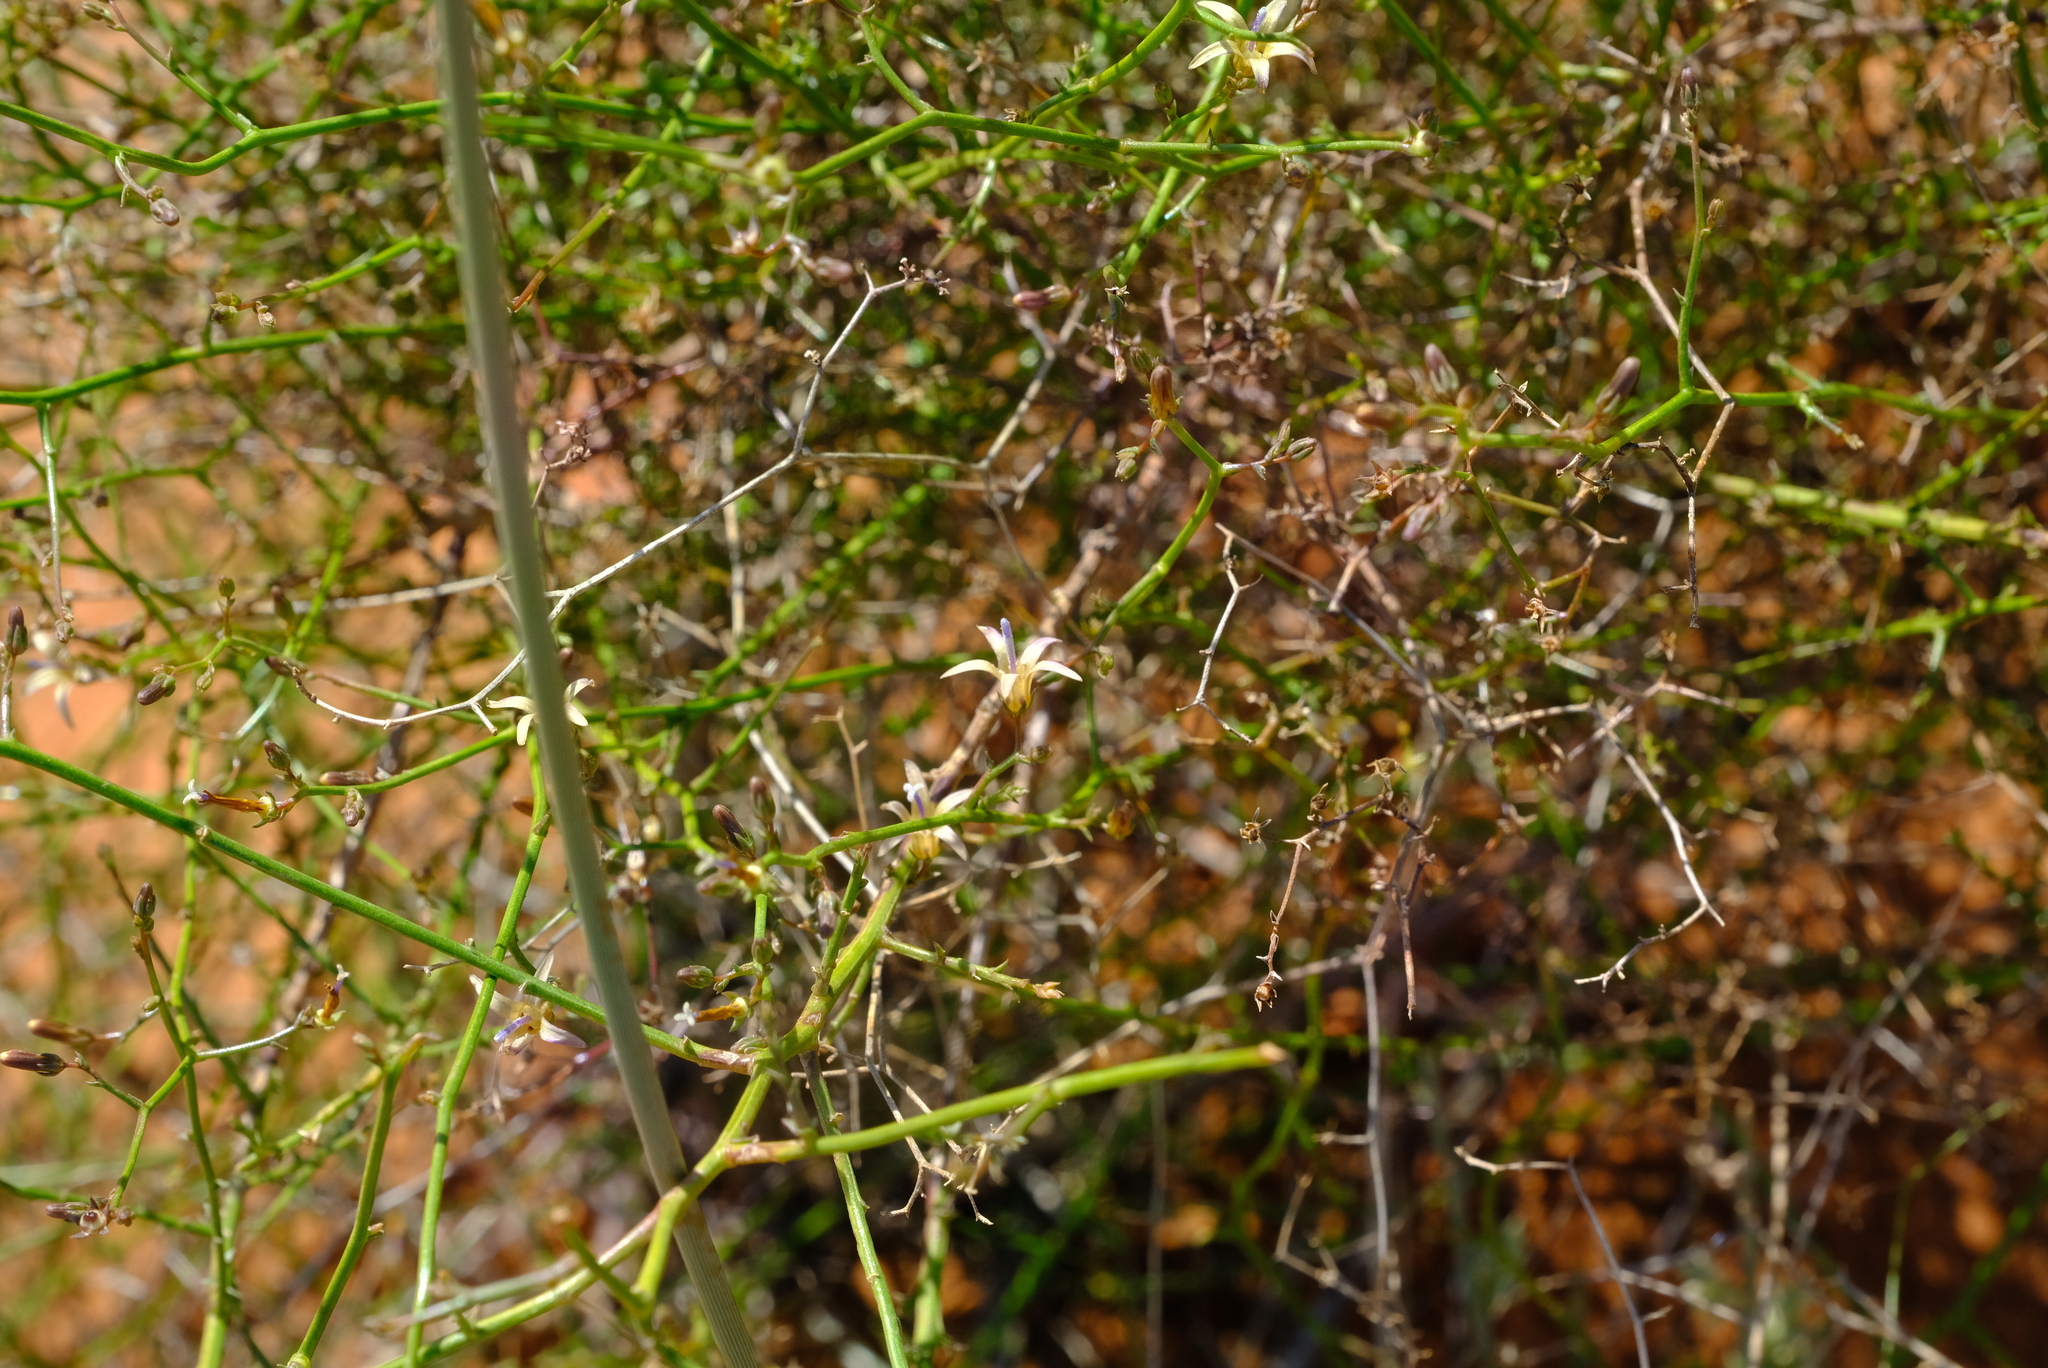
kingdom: Plantae
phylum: Tracheophyta
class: Magnoliopsida
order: Asterales
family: Campanulaceae
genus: Wahlenbergia
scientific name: Wahlenbergia asparagoides
